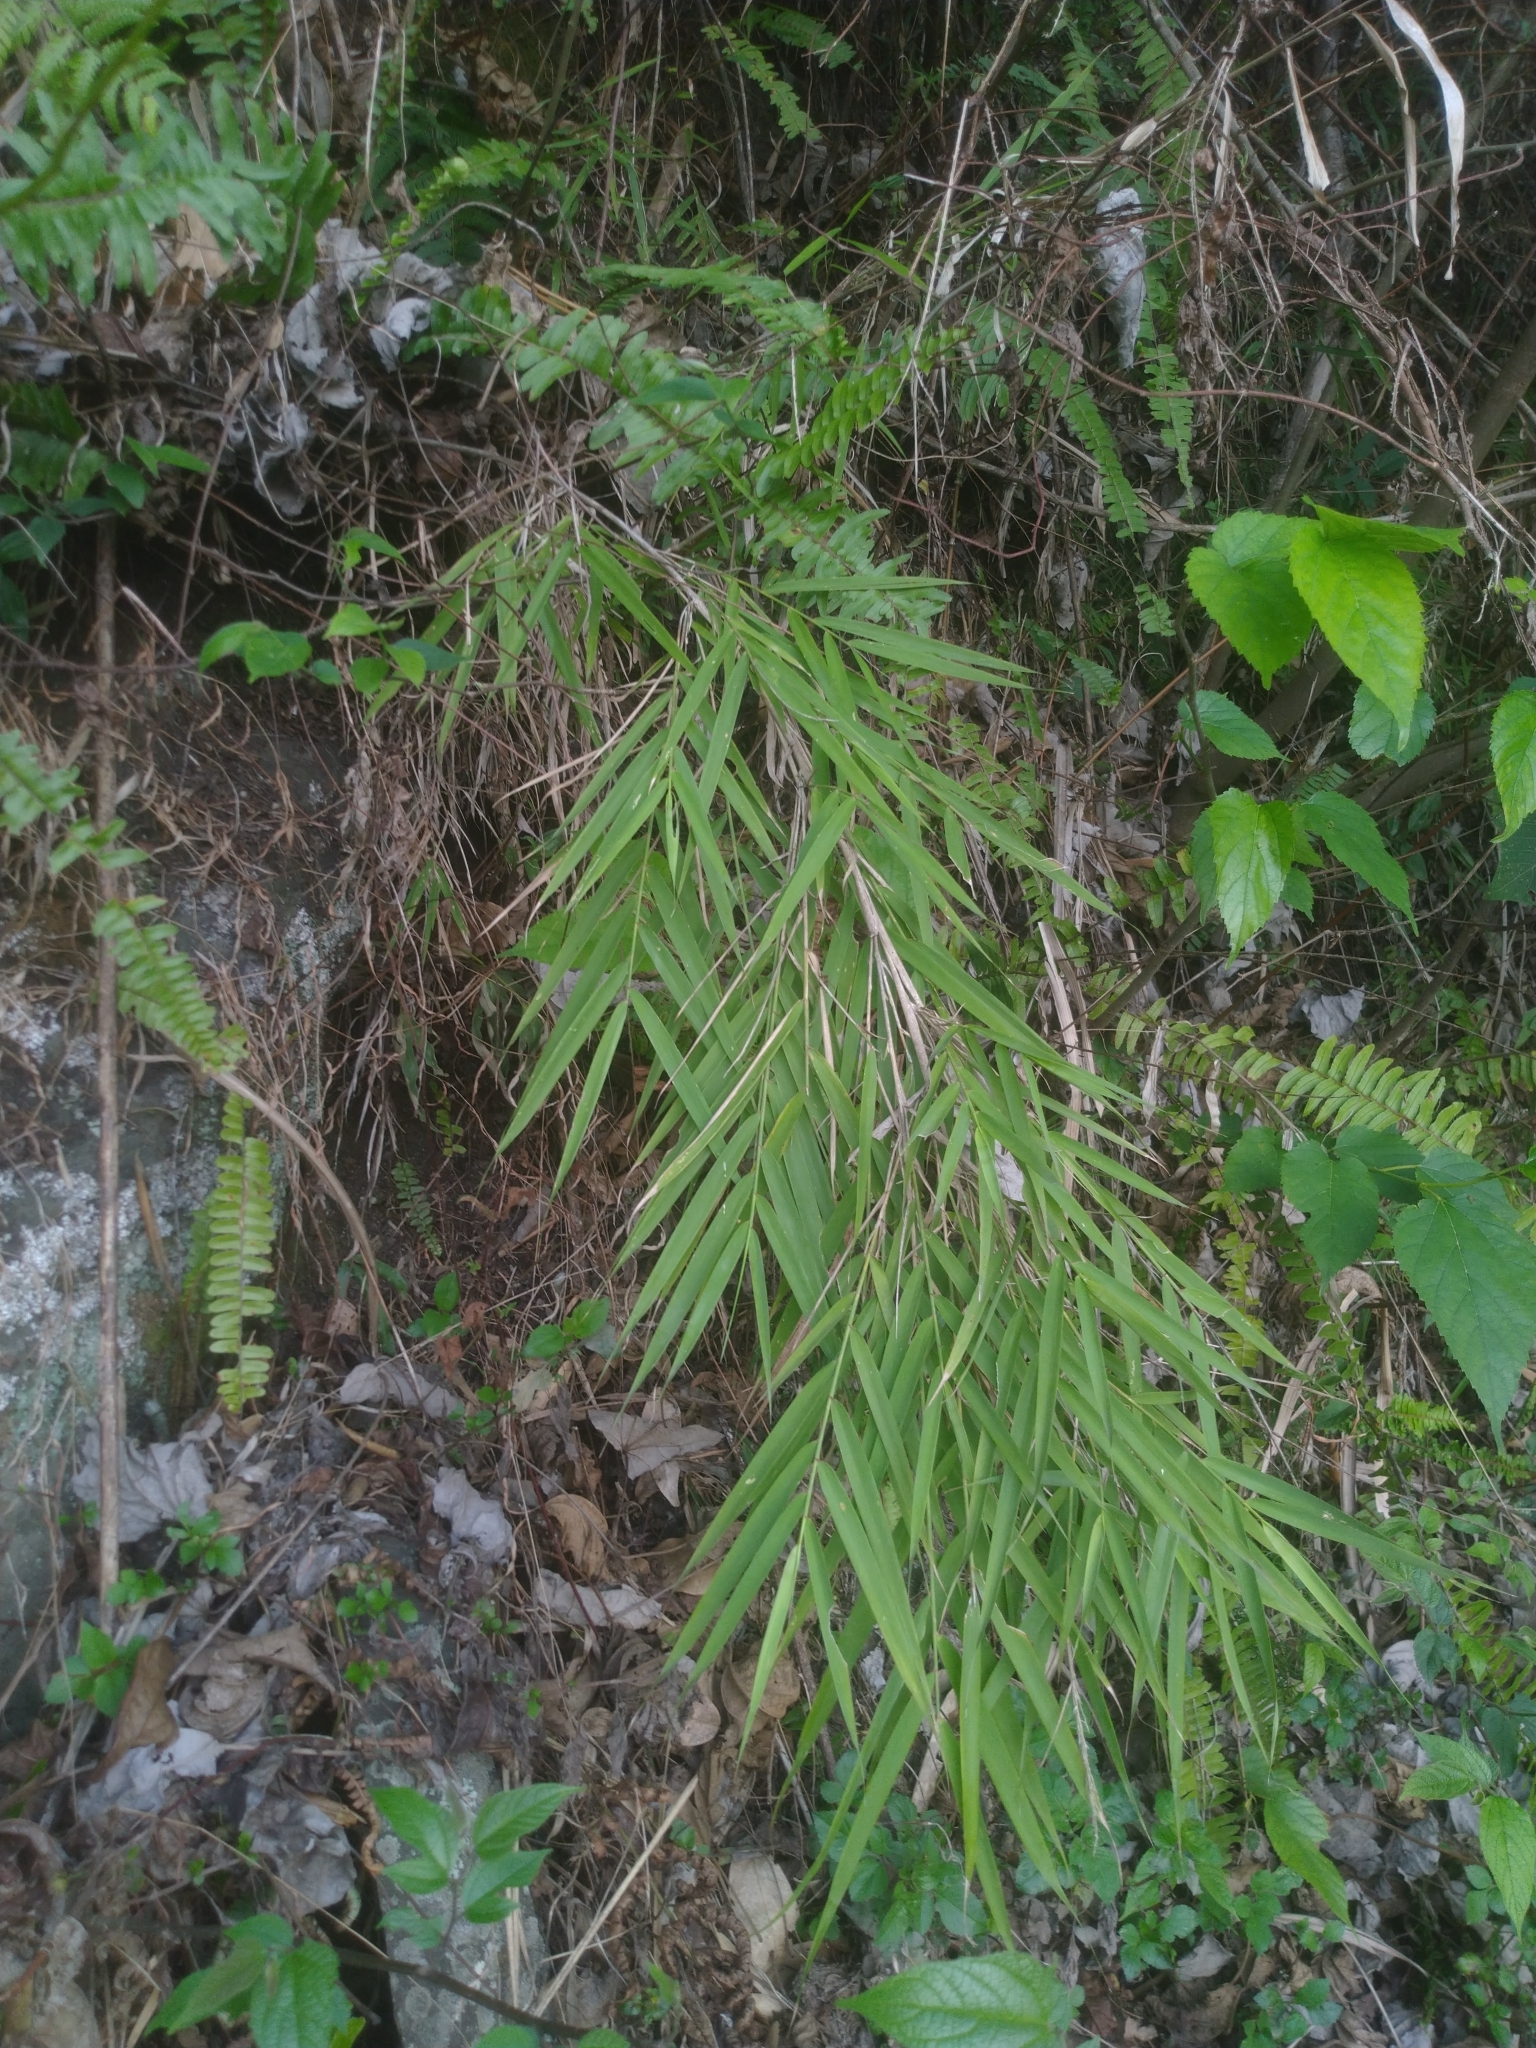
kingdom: Plantae
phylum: Tracheophyta
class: Liliopsida
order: Poales
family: Poaceae
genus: Arundo
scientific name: Arundo formosana
